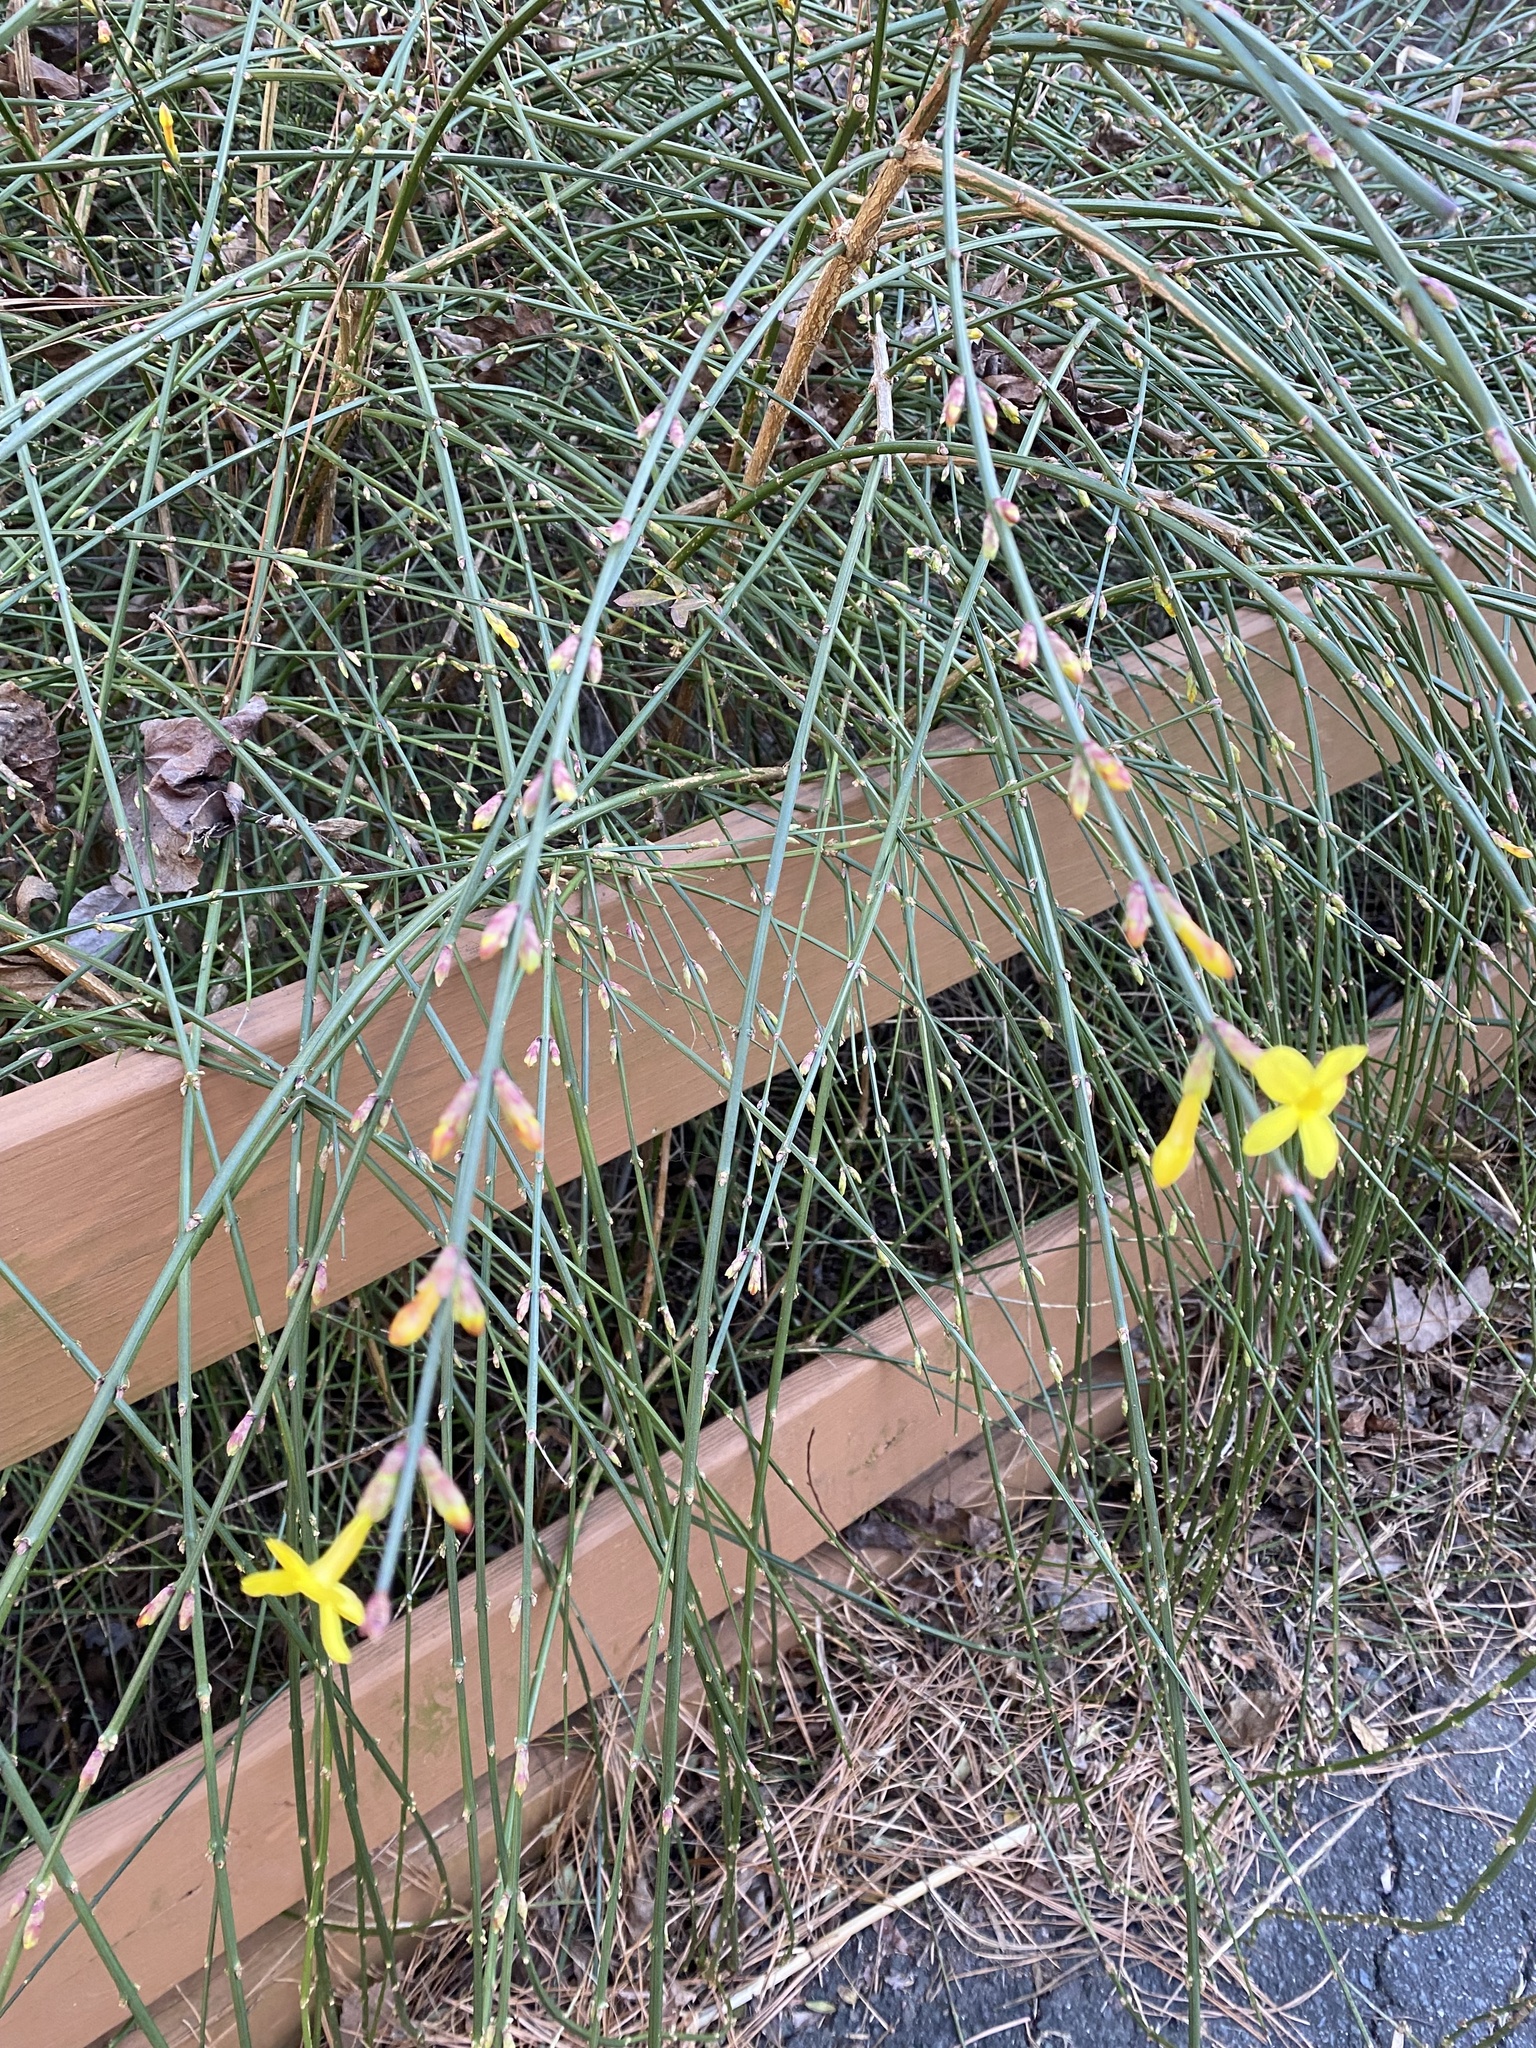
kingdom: Plantae
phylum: Tracheophyta
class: Magnoliopsida
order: Lamiales
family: Oleaceae
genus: Jasminum
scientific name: Jasminum nudiflorum
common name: Winter jasmine
